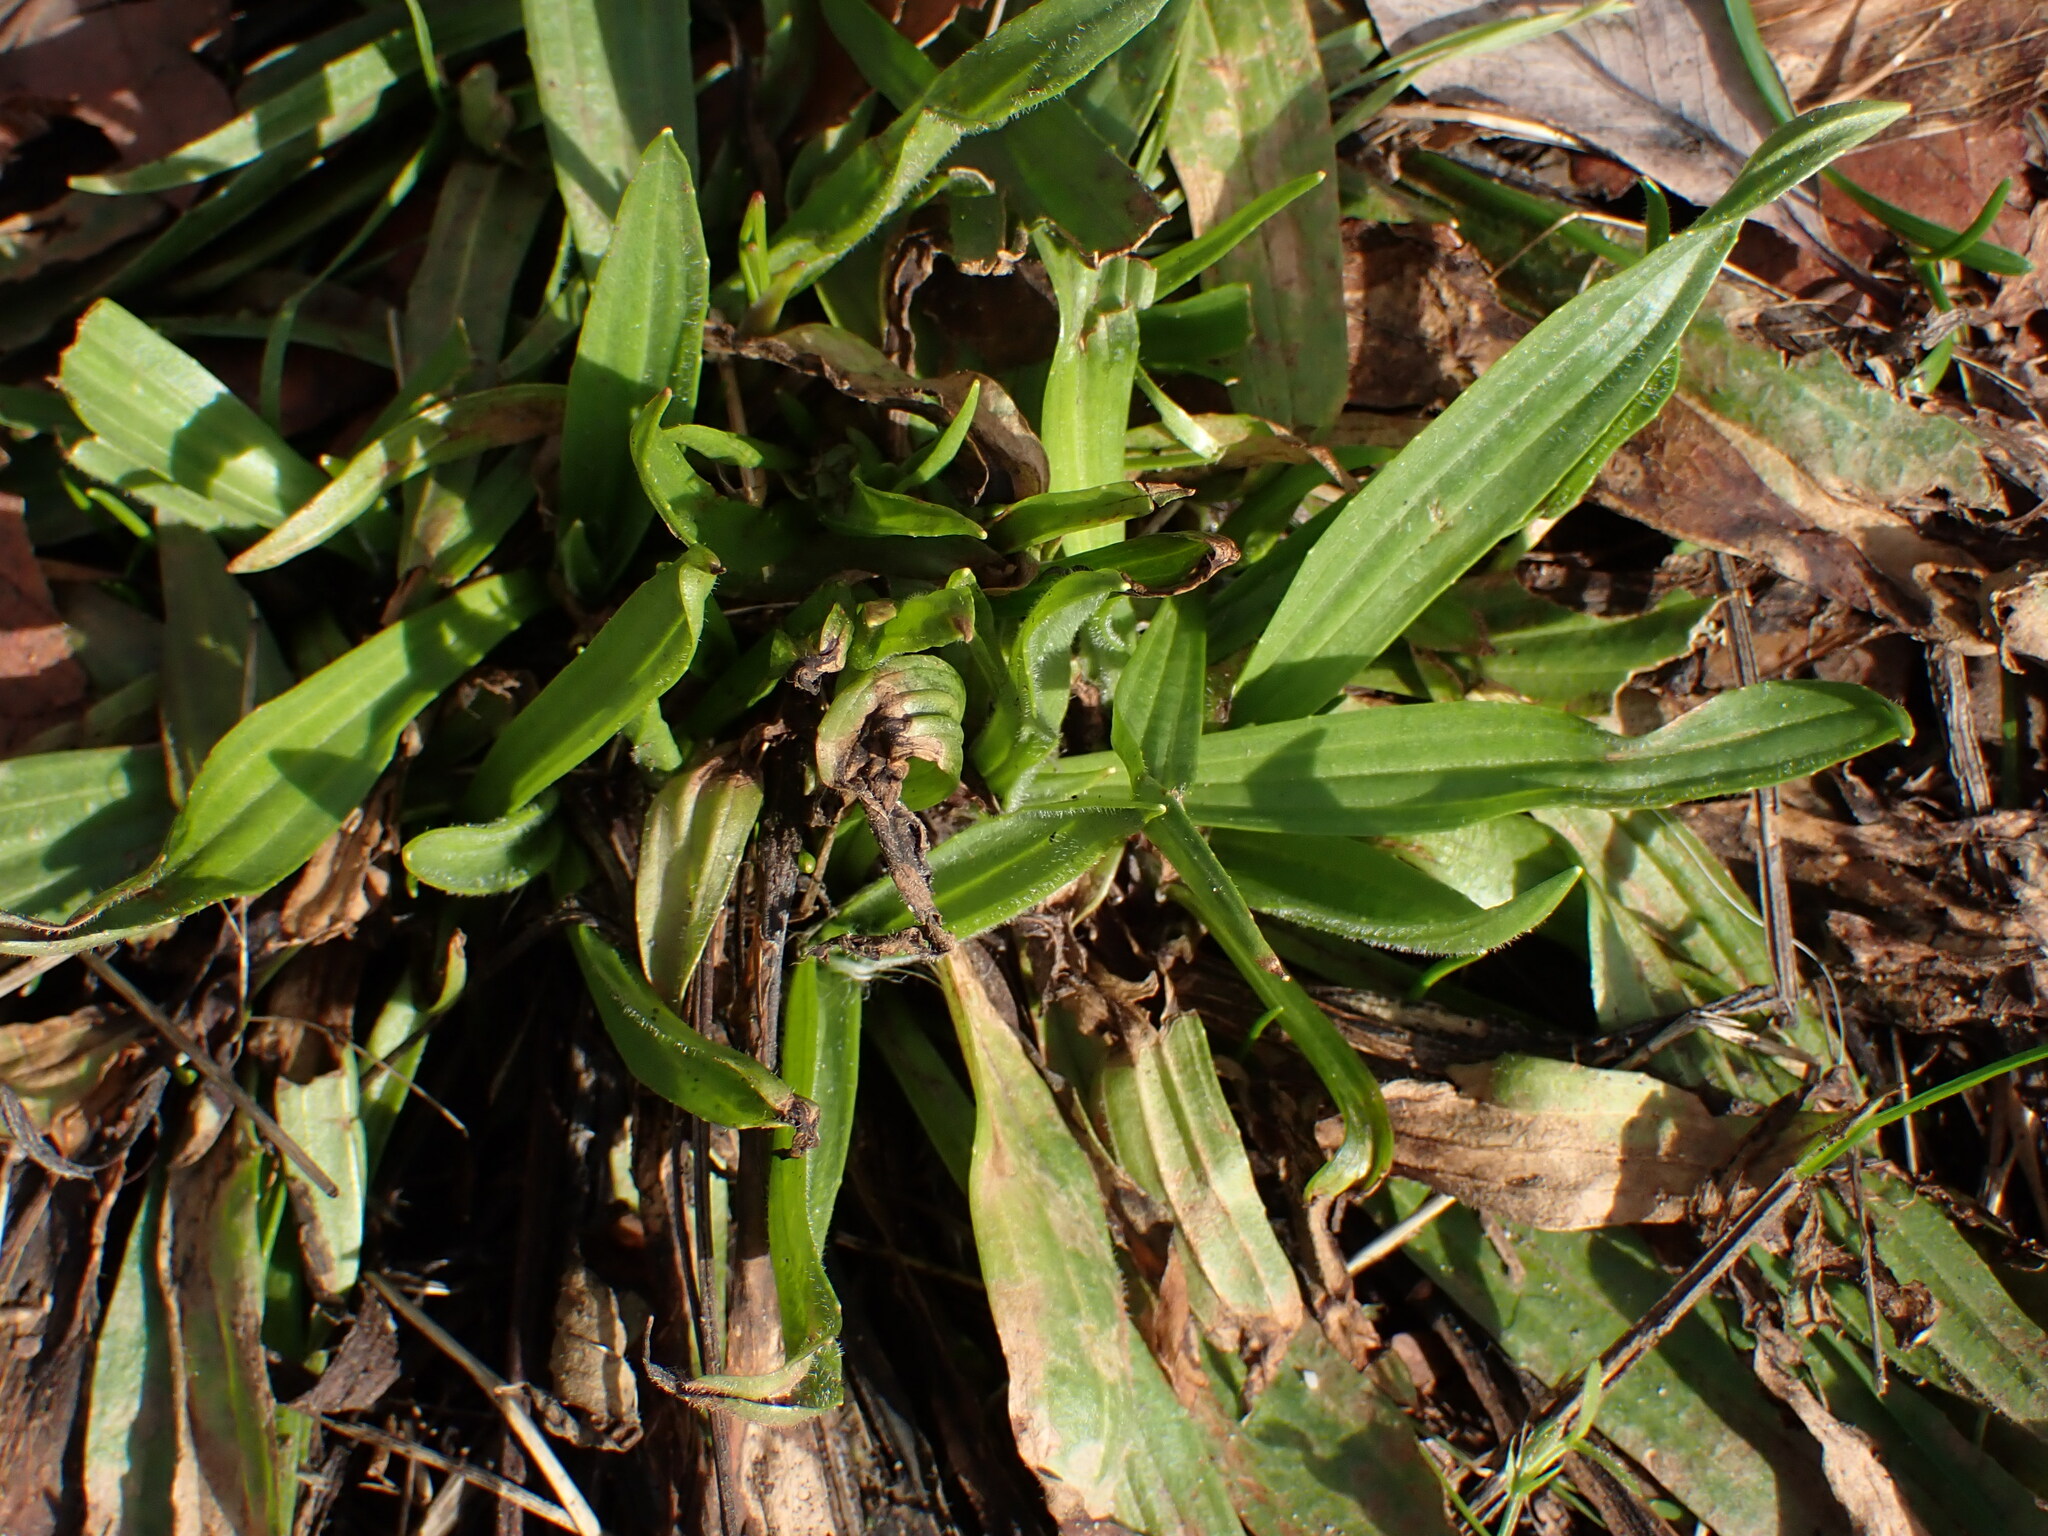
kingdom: Plantae
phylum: Tracheophyta
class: Magnoliopsida
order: Lamiales
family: Plantaginaceae
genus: Plantago
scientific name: Plantago lanceolata
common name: Ribwort plantain
